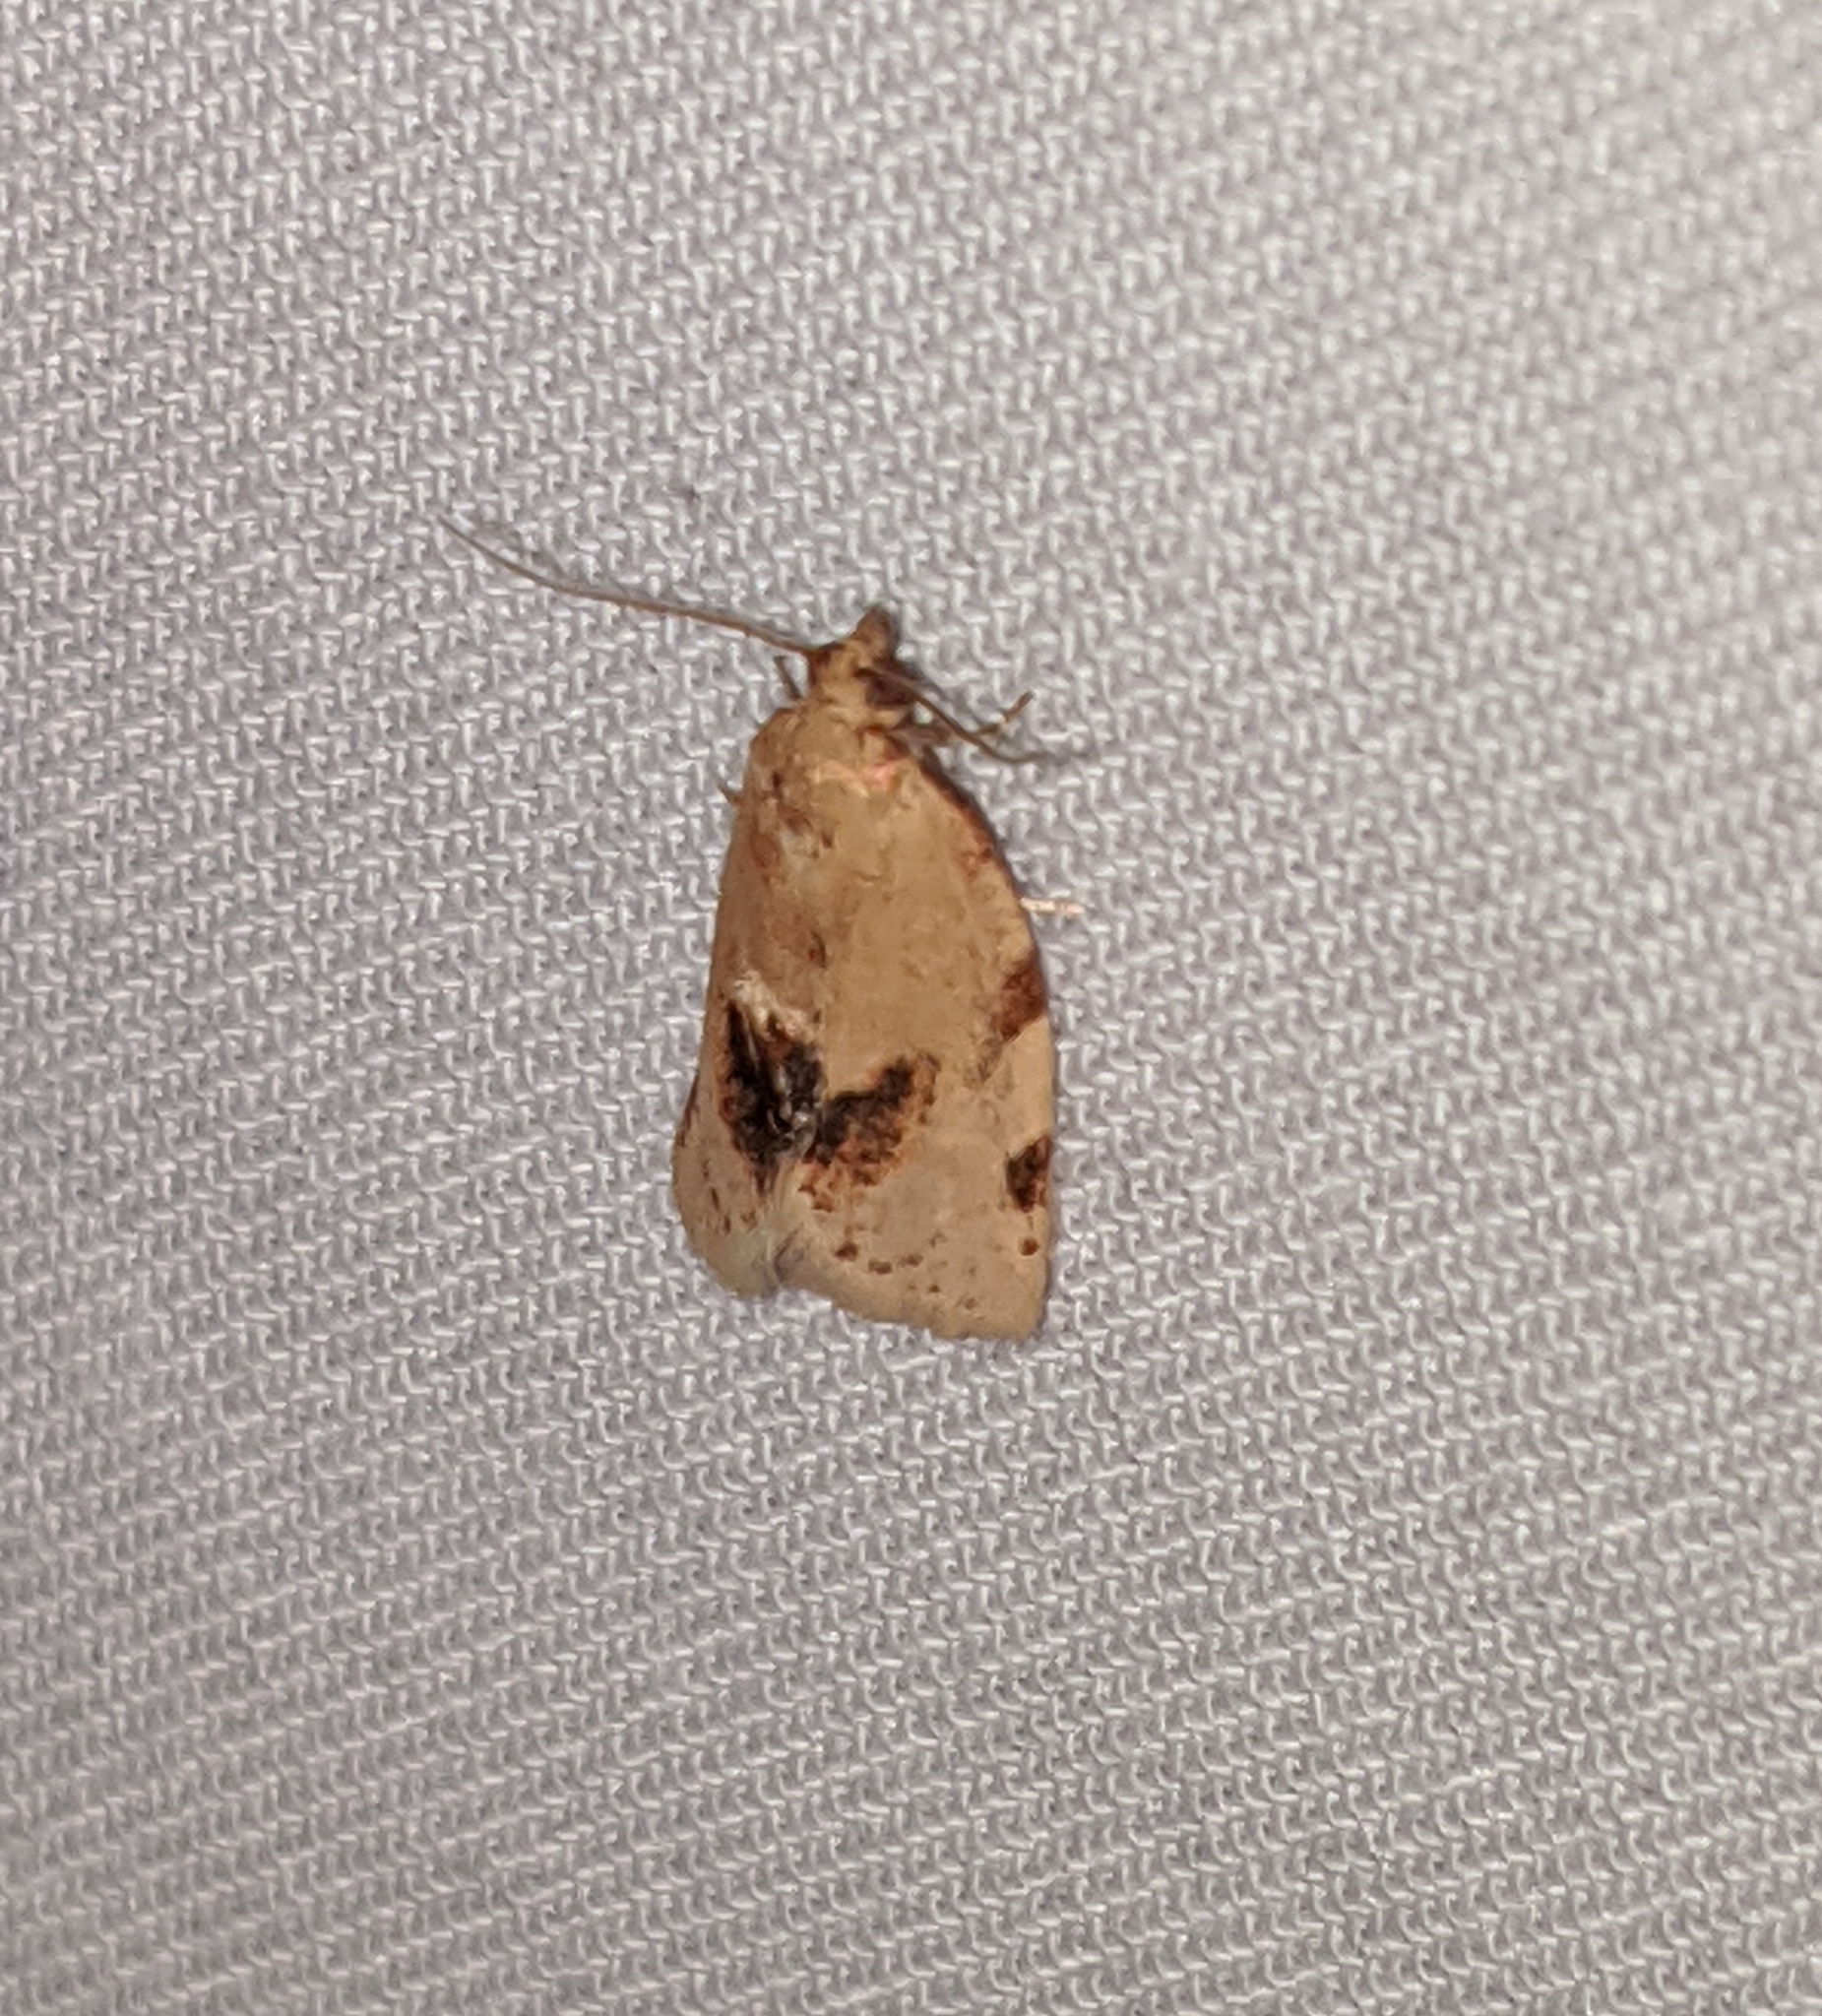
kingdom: Animalia
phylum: Arthropoda
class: Insecta
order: Lepidoptera
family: Tortricidae
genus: Argyrotaenia
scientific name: Argyrotaenia dorsalana
